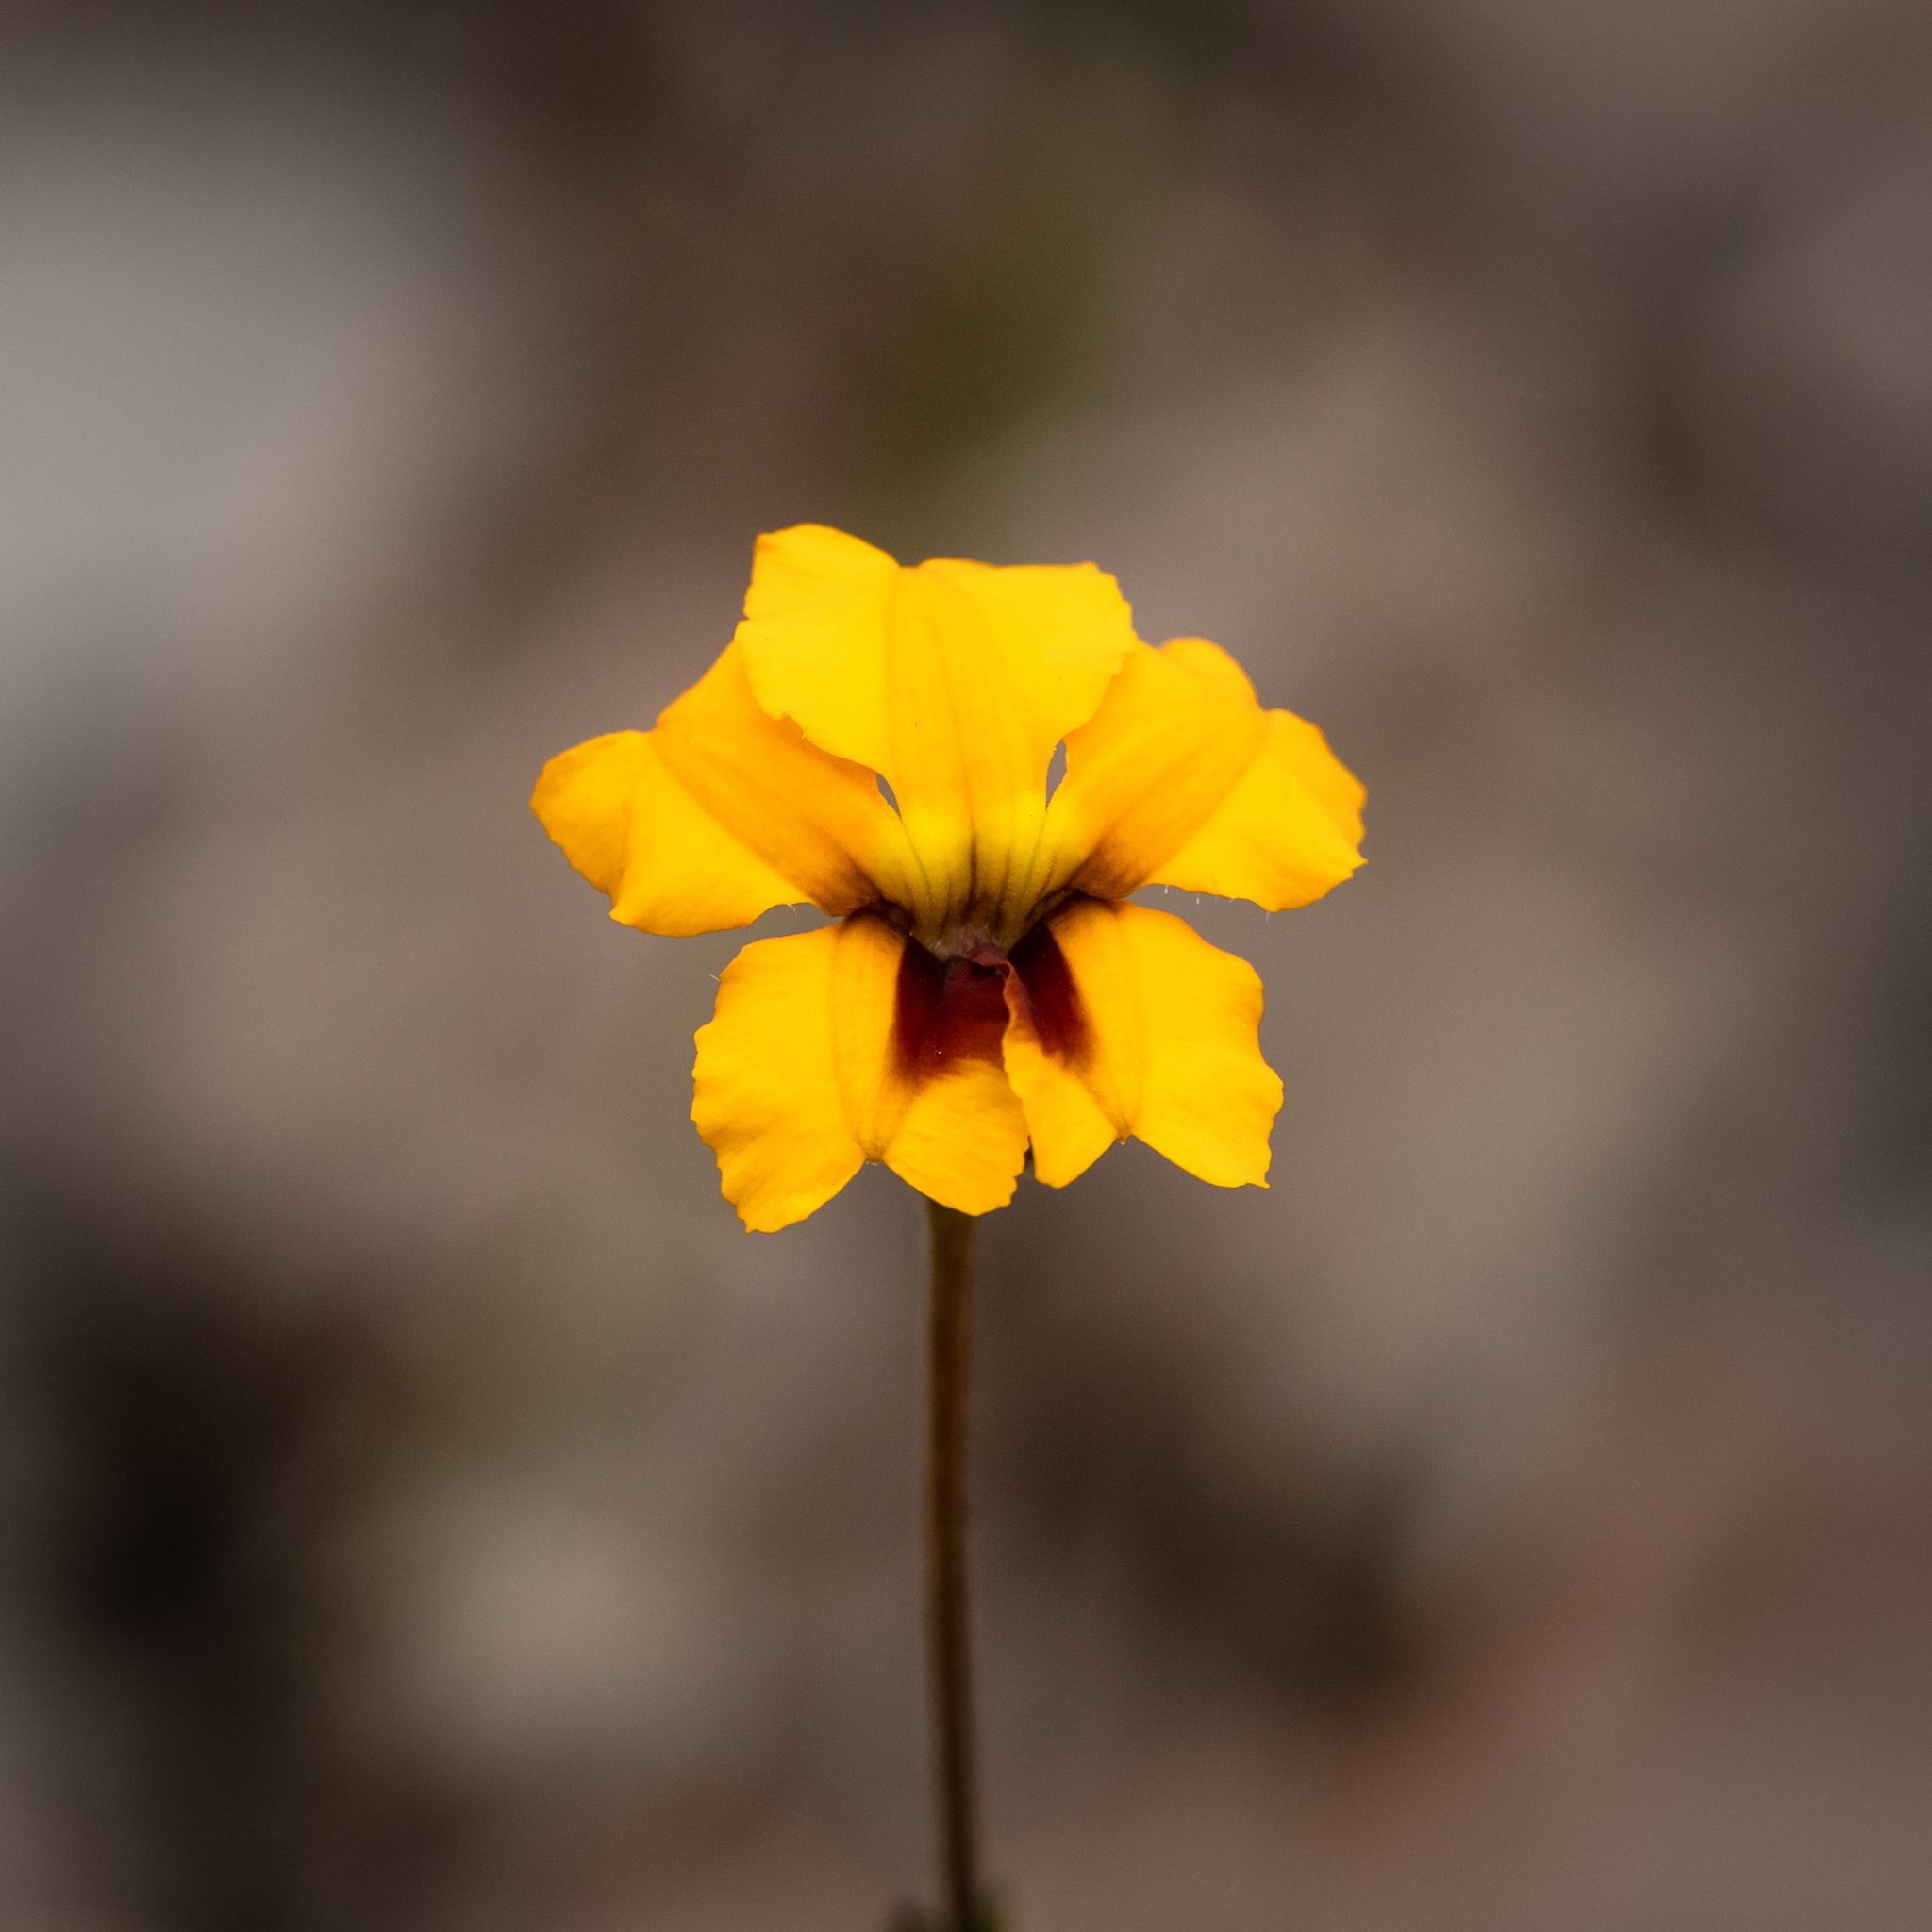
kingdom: Plantae
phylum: Tracheophyta
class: Magnoliopsida
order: Asterales
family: Goodeniaceae
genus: Goodenia
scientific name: Goodenia trinervis
